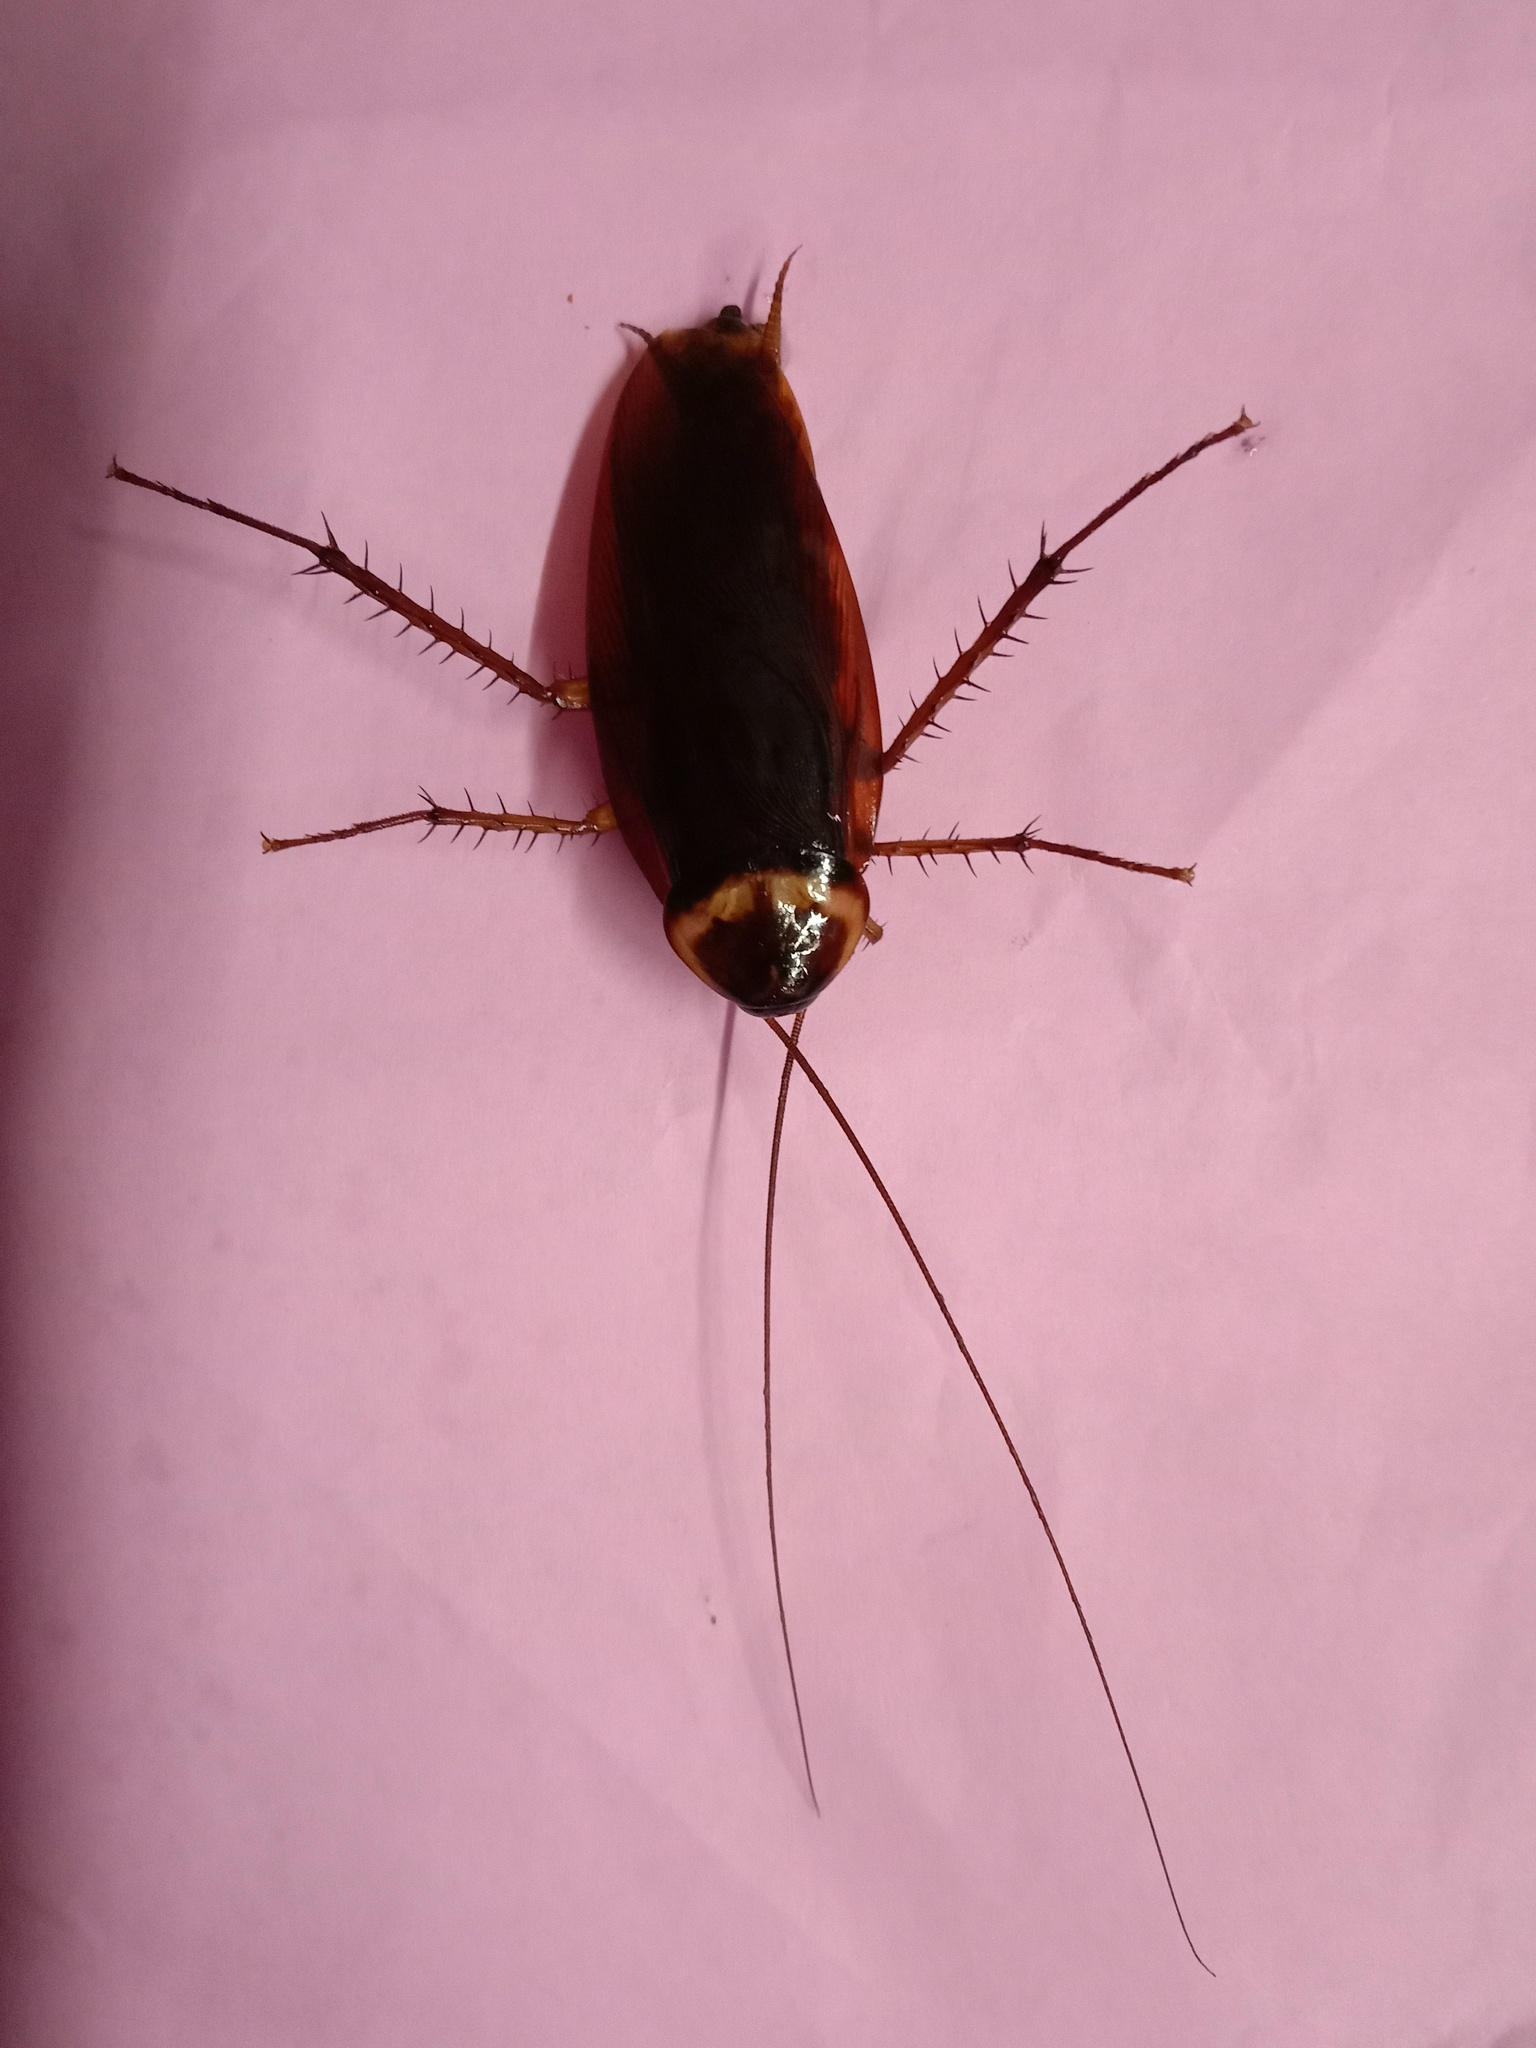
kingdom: Animalia
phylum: Arthropoda
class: Insecta
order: Blattodea
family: Blattidae
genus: Periplaneta
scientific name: Periplaneta americana
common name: American cockroach
